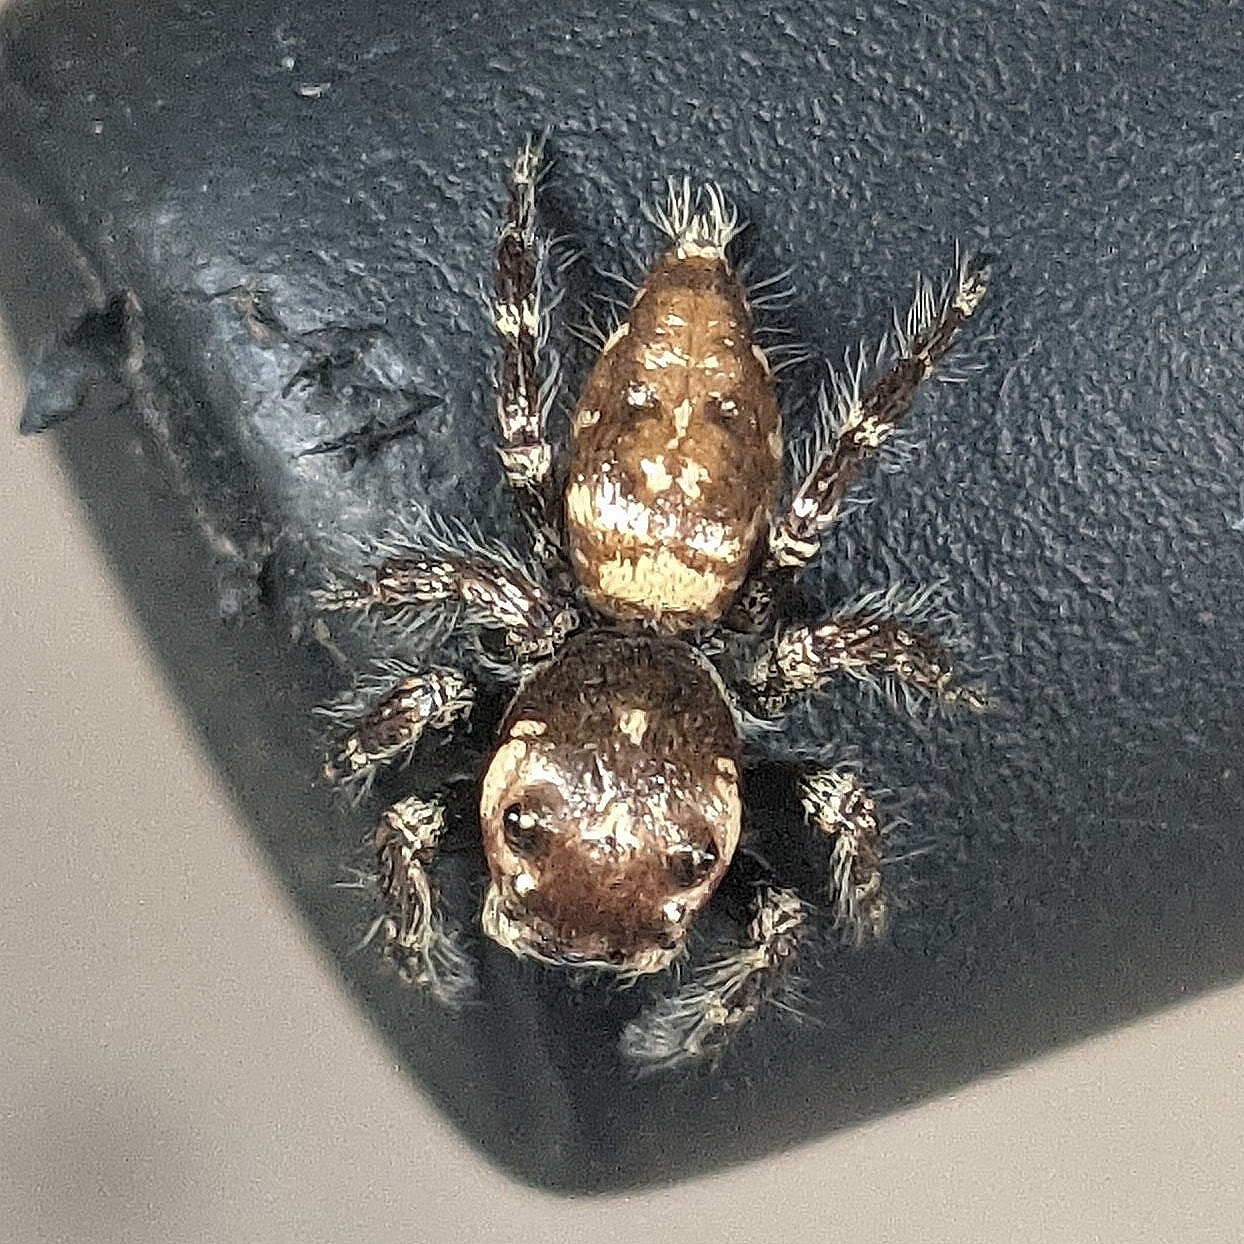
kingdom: Animalia
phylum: Arthropoda
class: Arachnida
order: Araneae
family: Salticidae
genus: Hyllus
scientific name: Hyllus semicupreus
